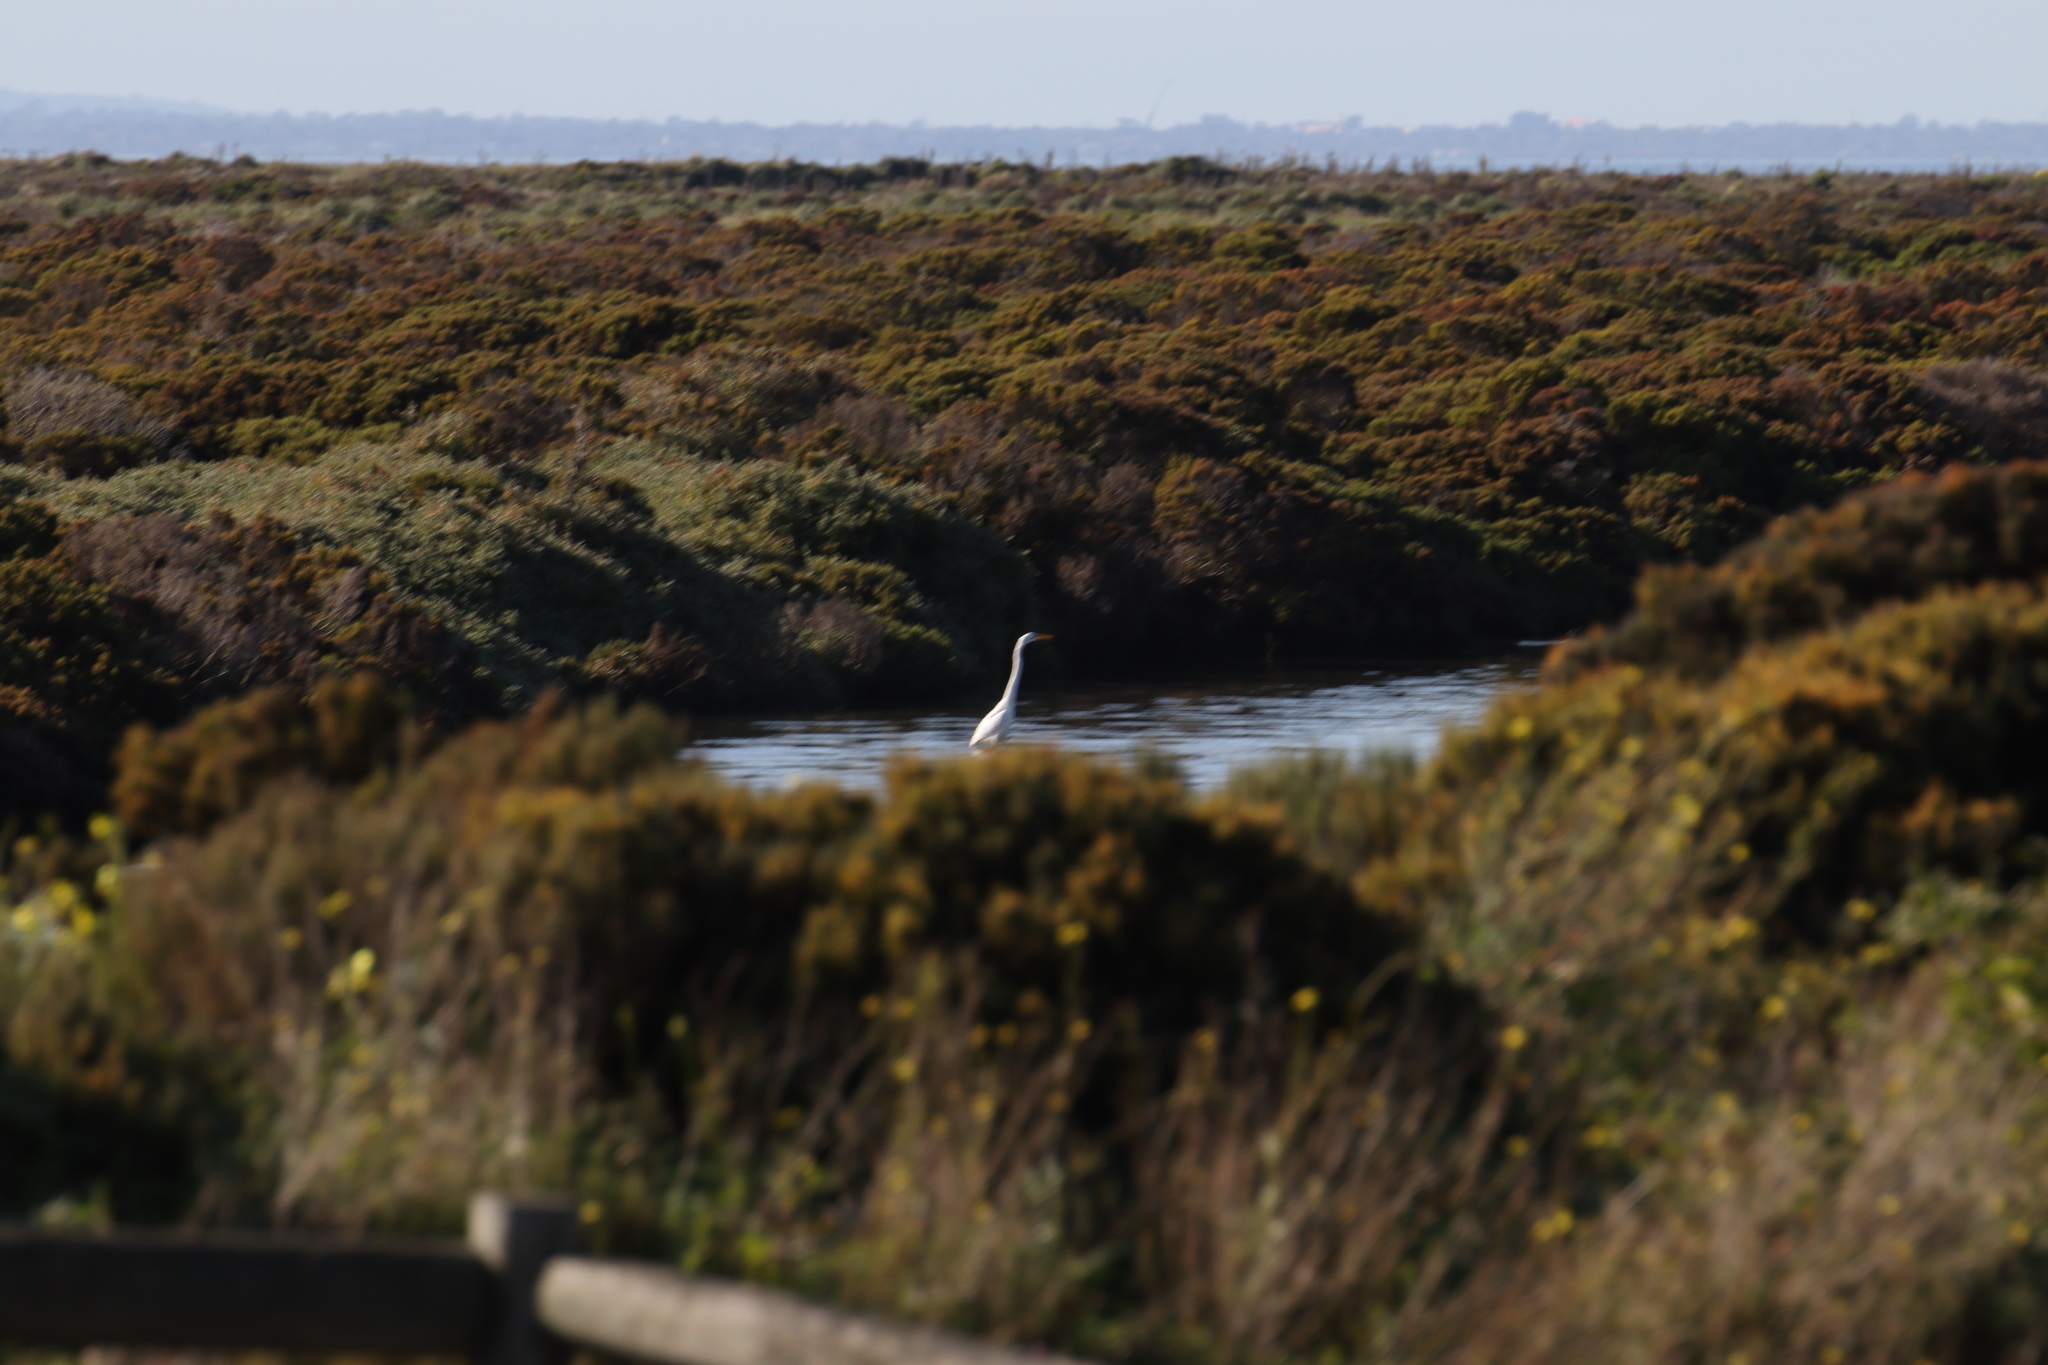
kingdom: Animalia
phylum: Chordata
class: Aves
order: Pelecaniformes
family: Ardeidae
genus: Ardea
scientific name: Ardea alba
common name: Great egret
